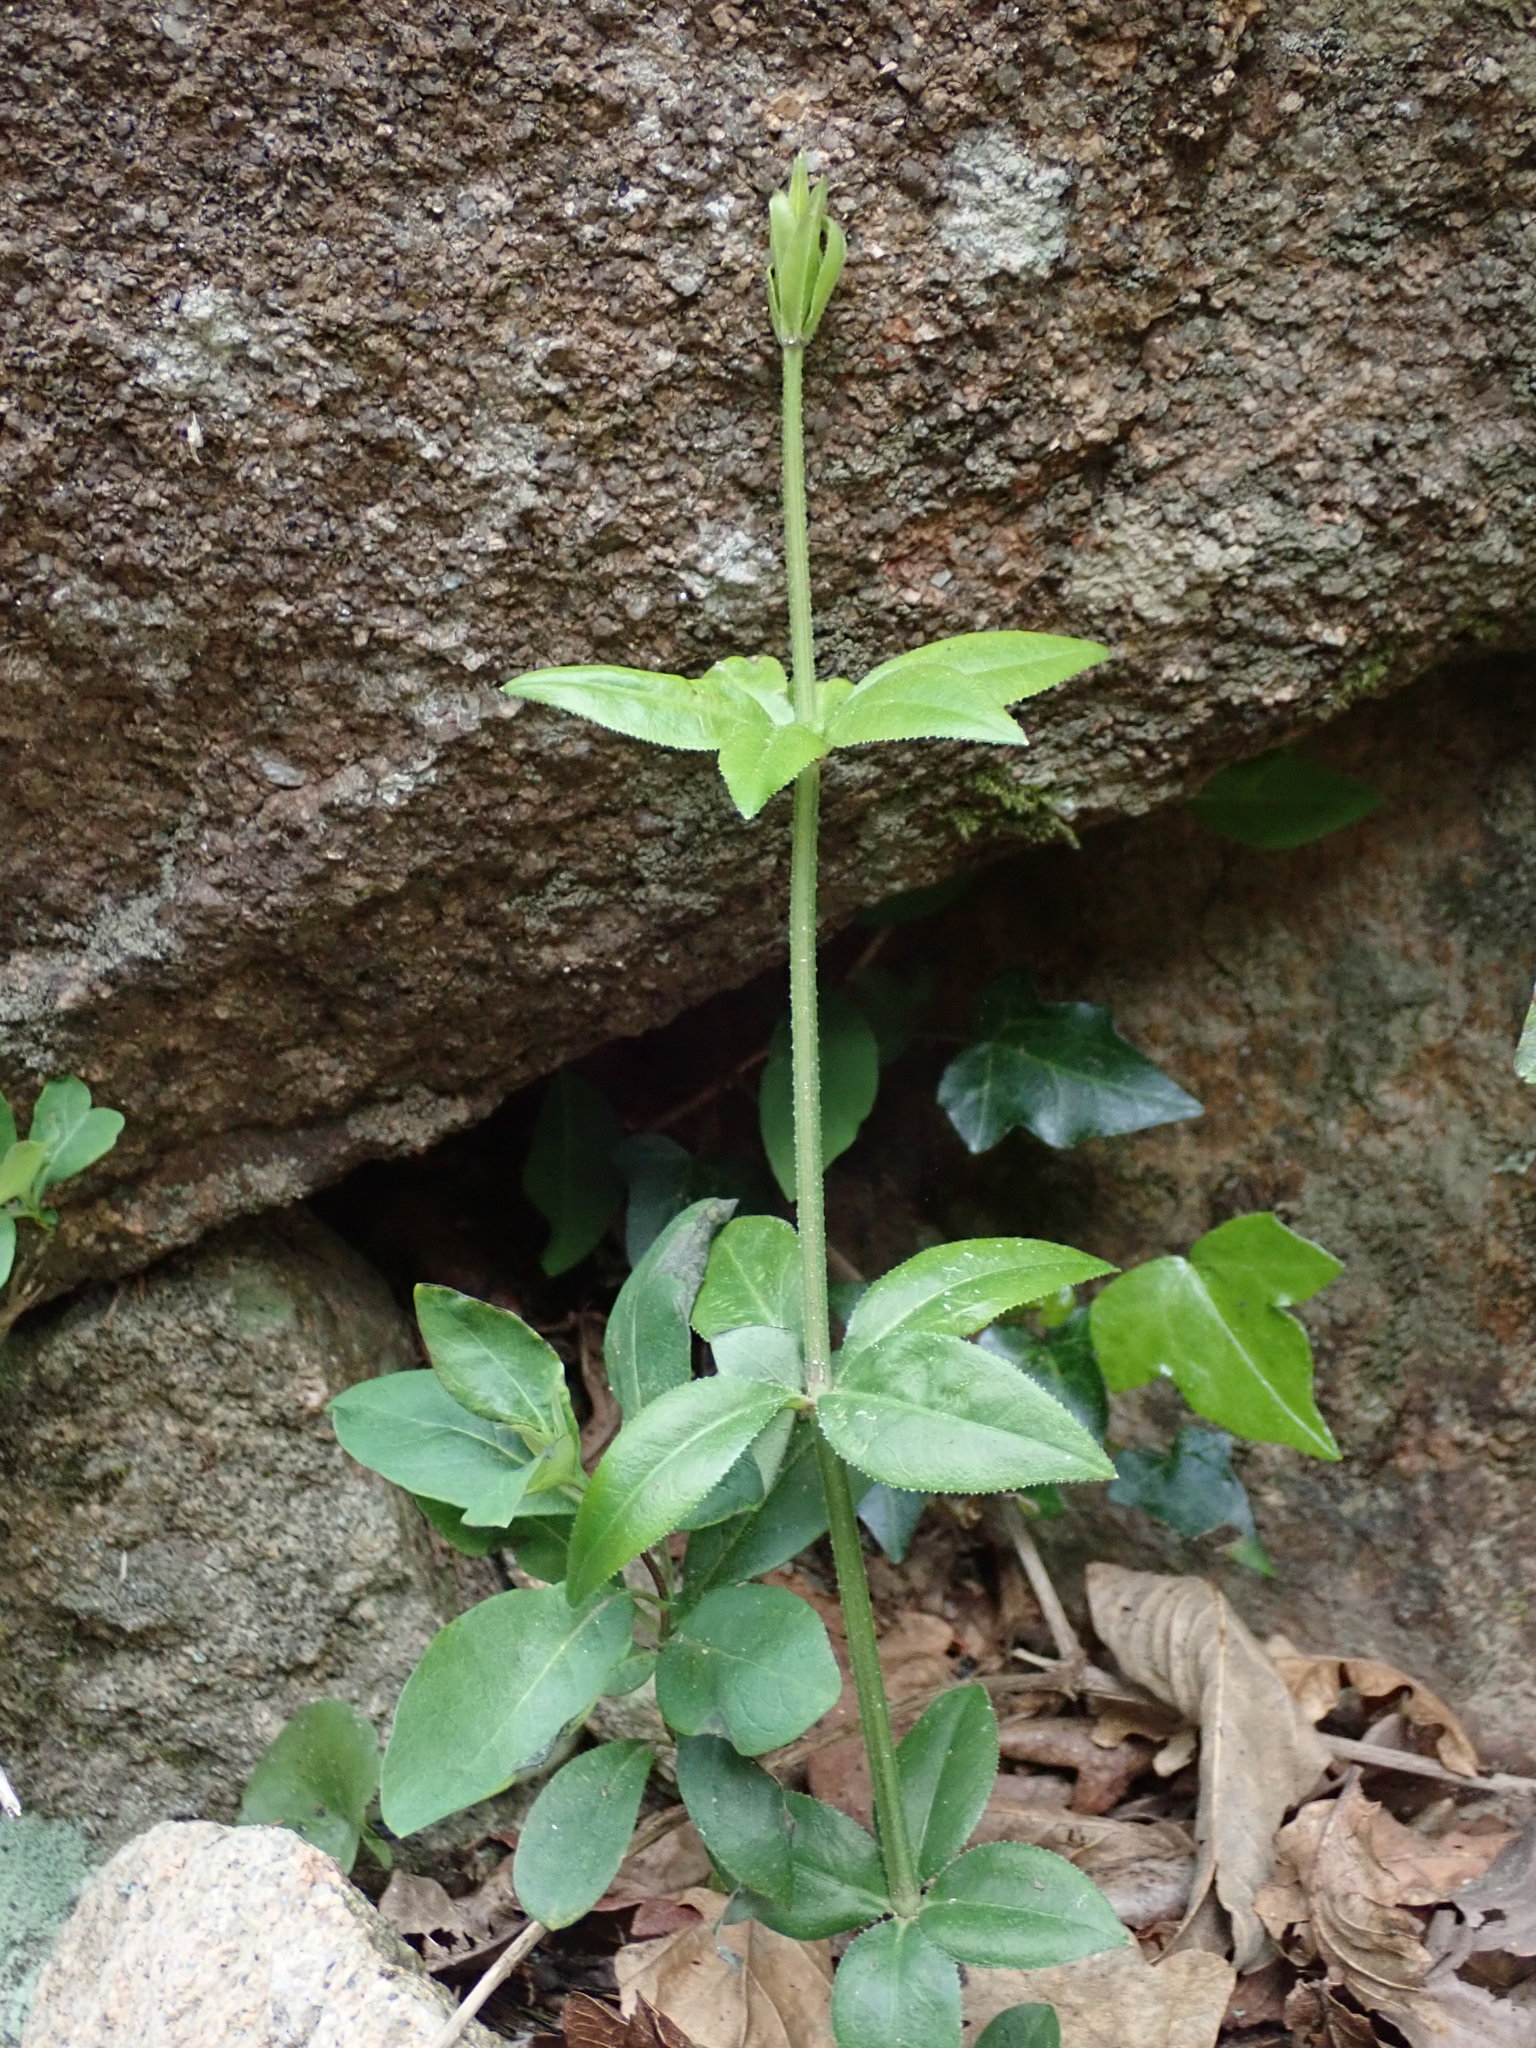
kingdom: Plantae
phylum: Tracheophyta
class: Magnoliopsida
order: Gentianales
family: Rubiaceae
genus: Rubia
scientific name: Rubia peregrina
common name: Wild madder
